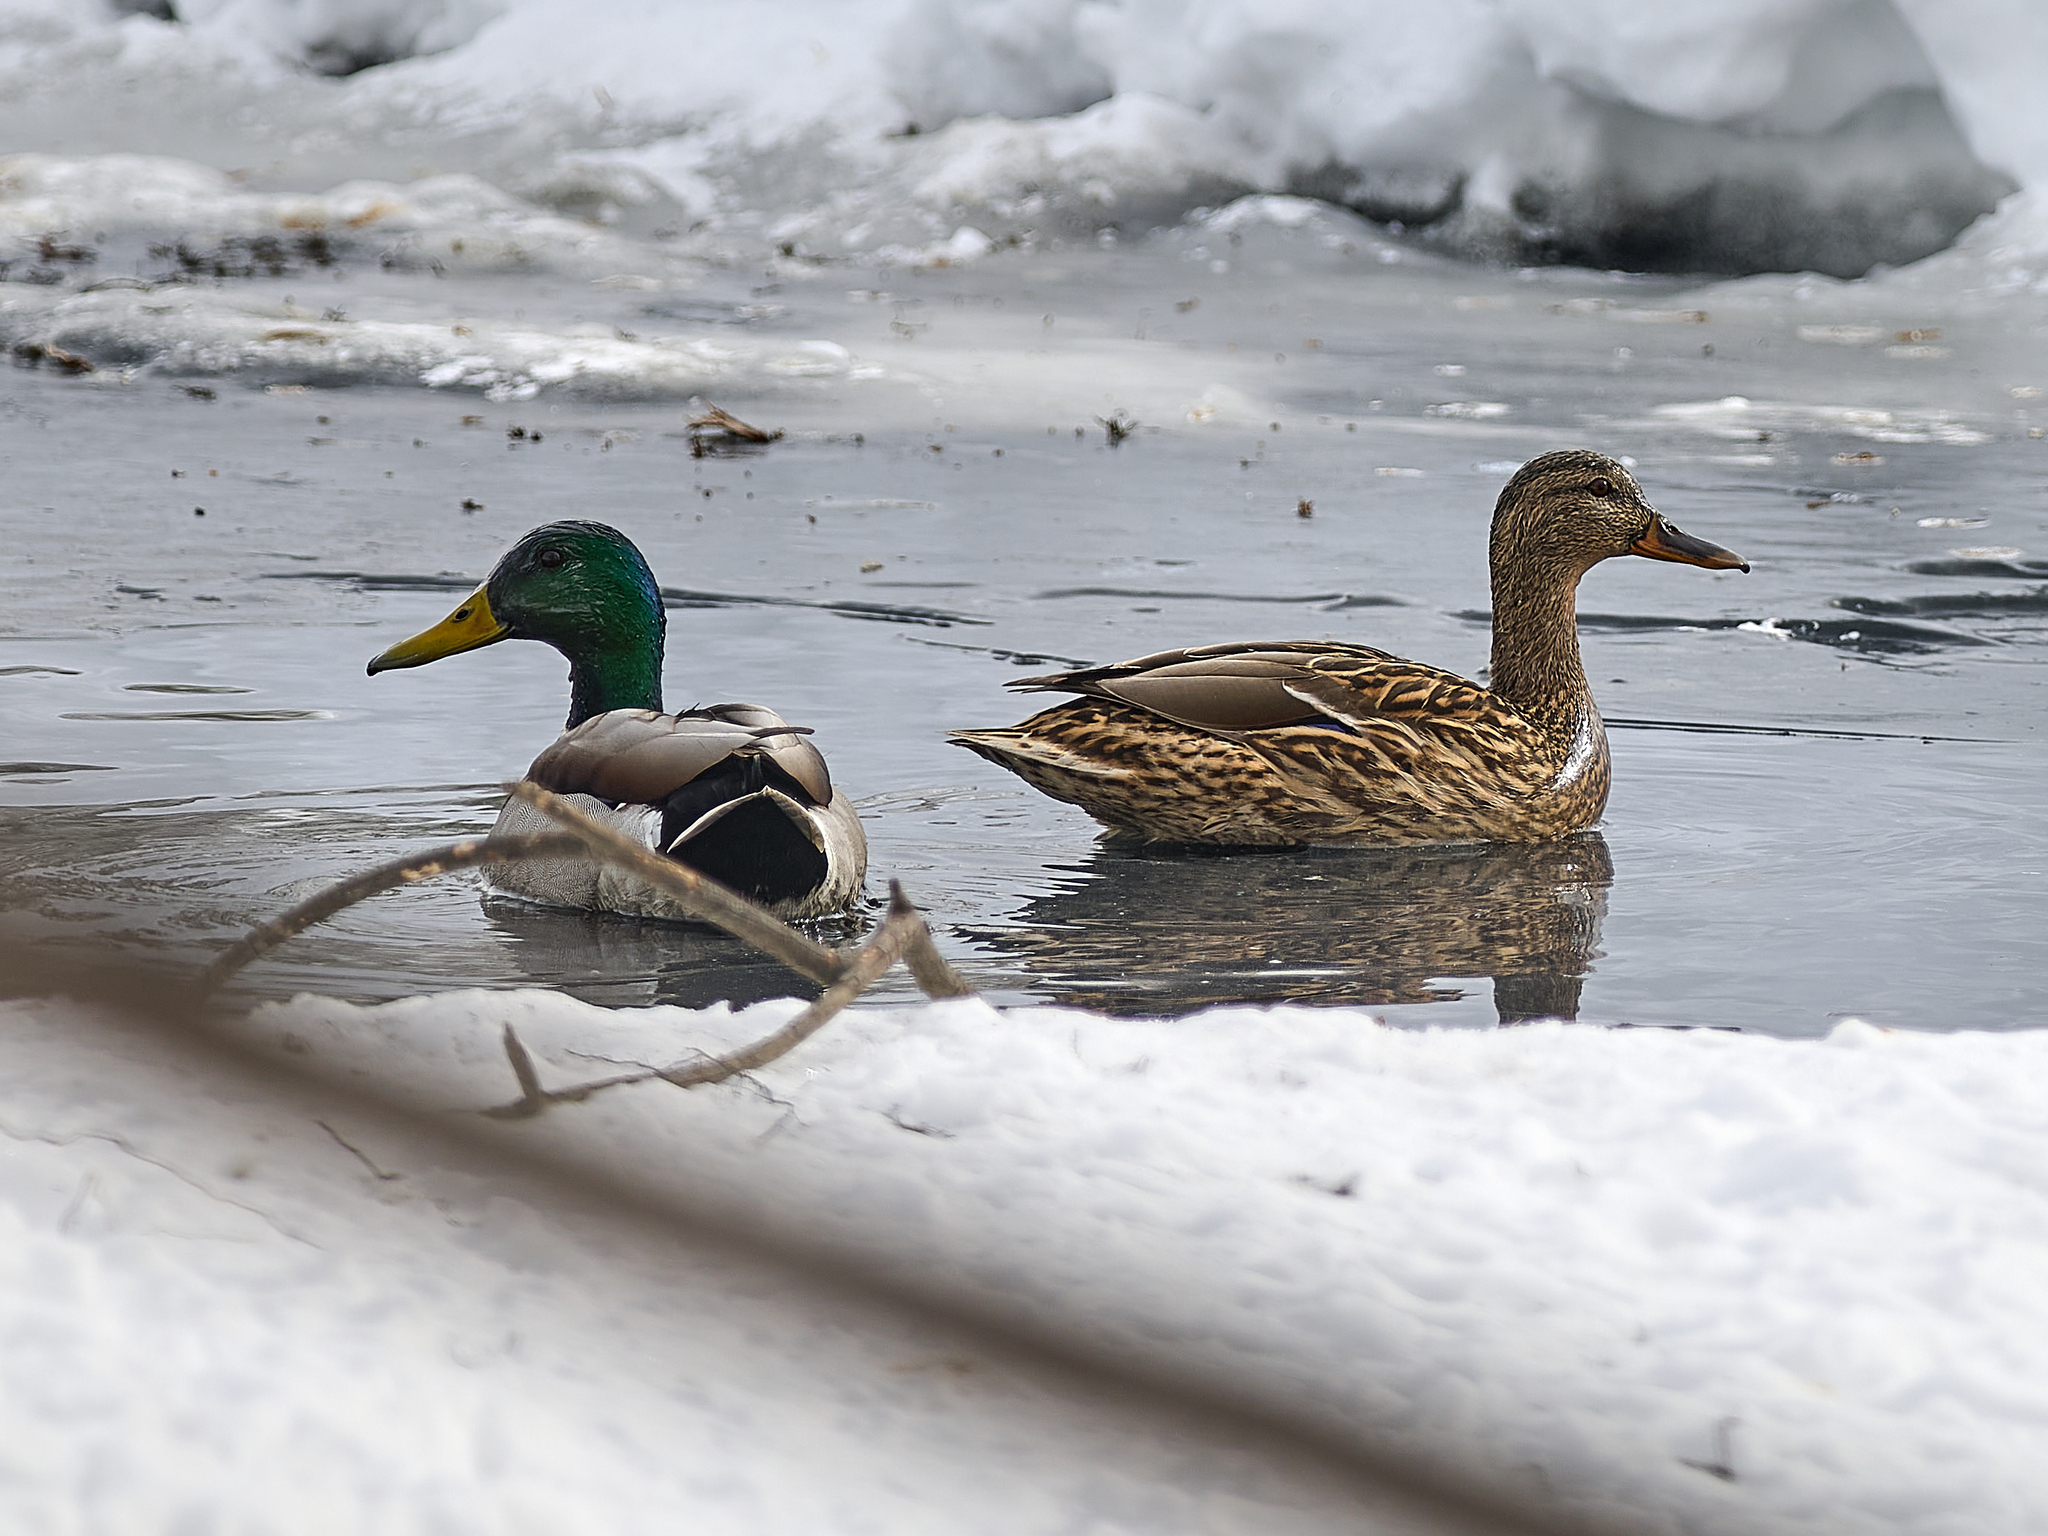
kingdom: Animalia
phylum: Chordata
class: Aves
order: Anseriformes
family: Anatidae
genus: Anas
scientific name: Anas platyrhynchos
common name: Mallard
